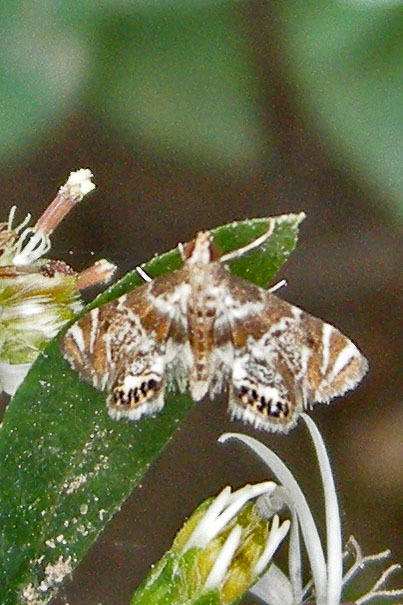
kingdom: Animalia
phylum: Arthropoda
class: Insecta
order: Lepidoptera
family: Crambidae
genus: Petrophila
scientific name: Petrophila fulicalis
